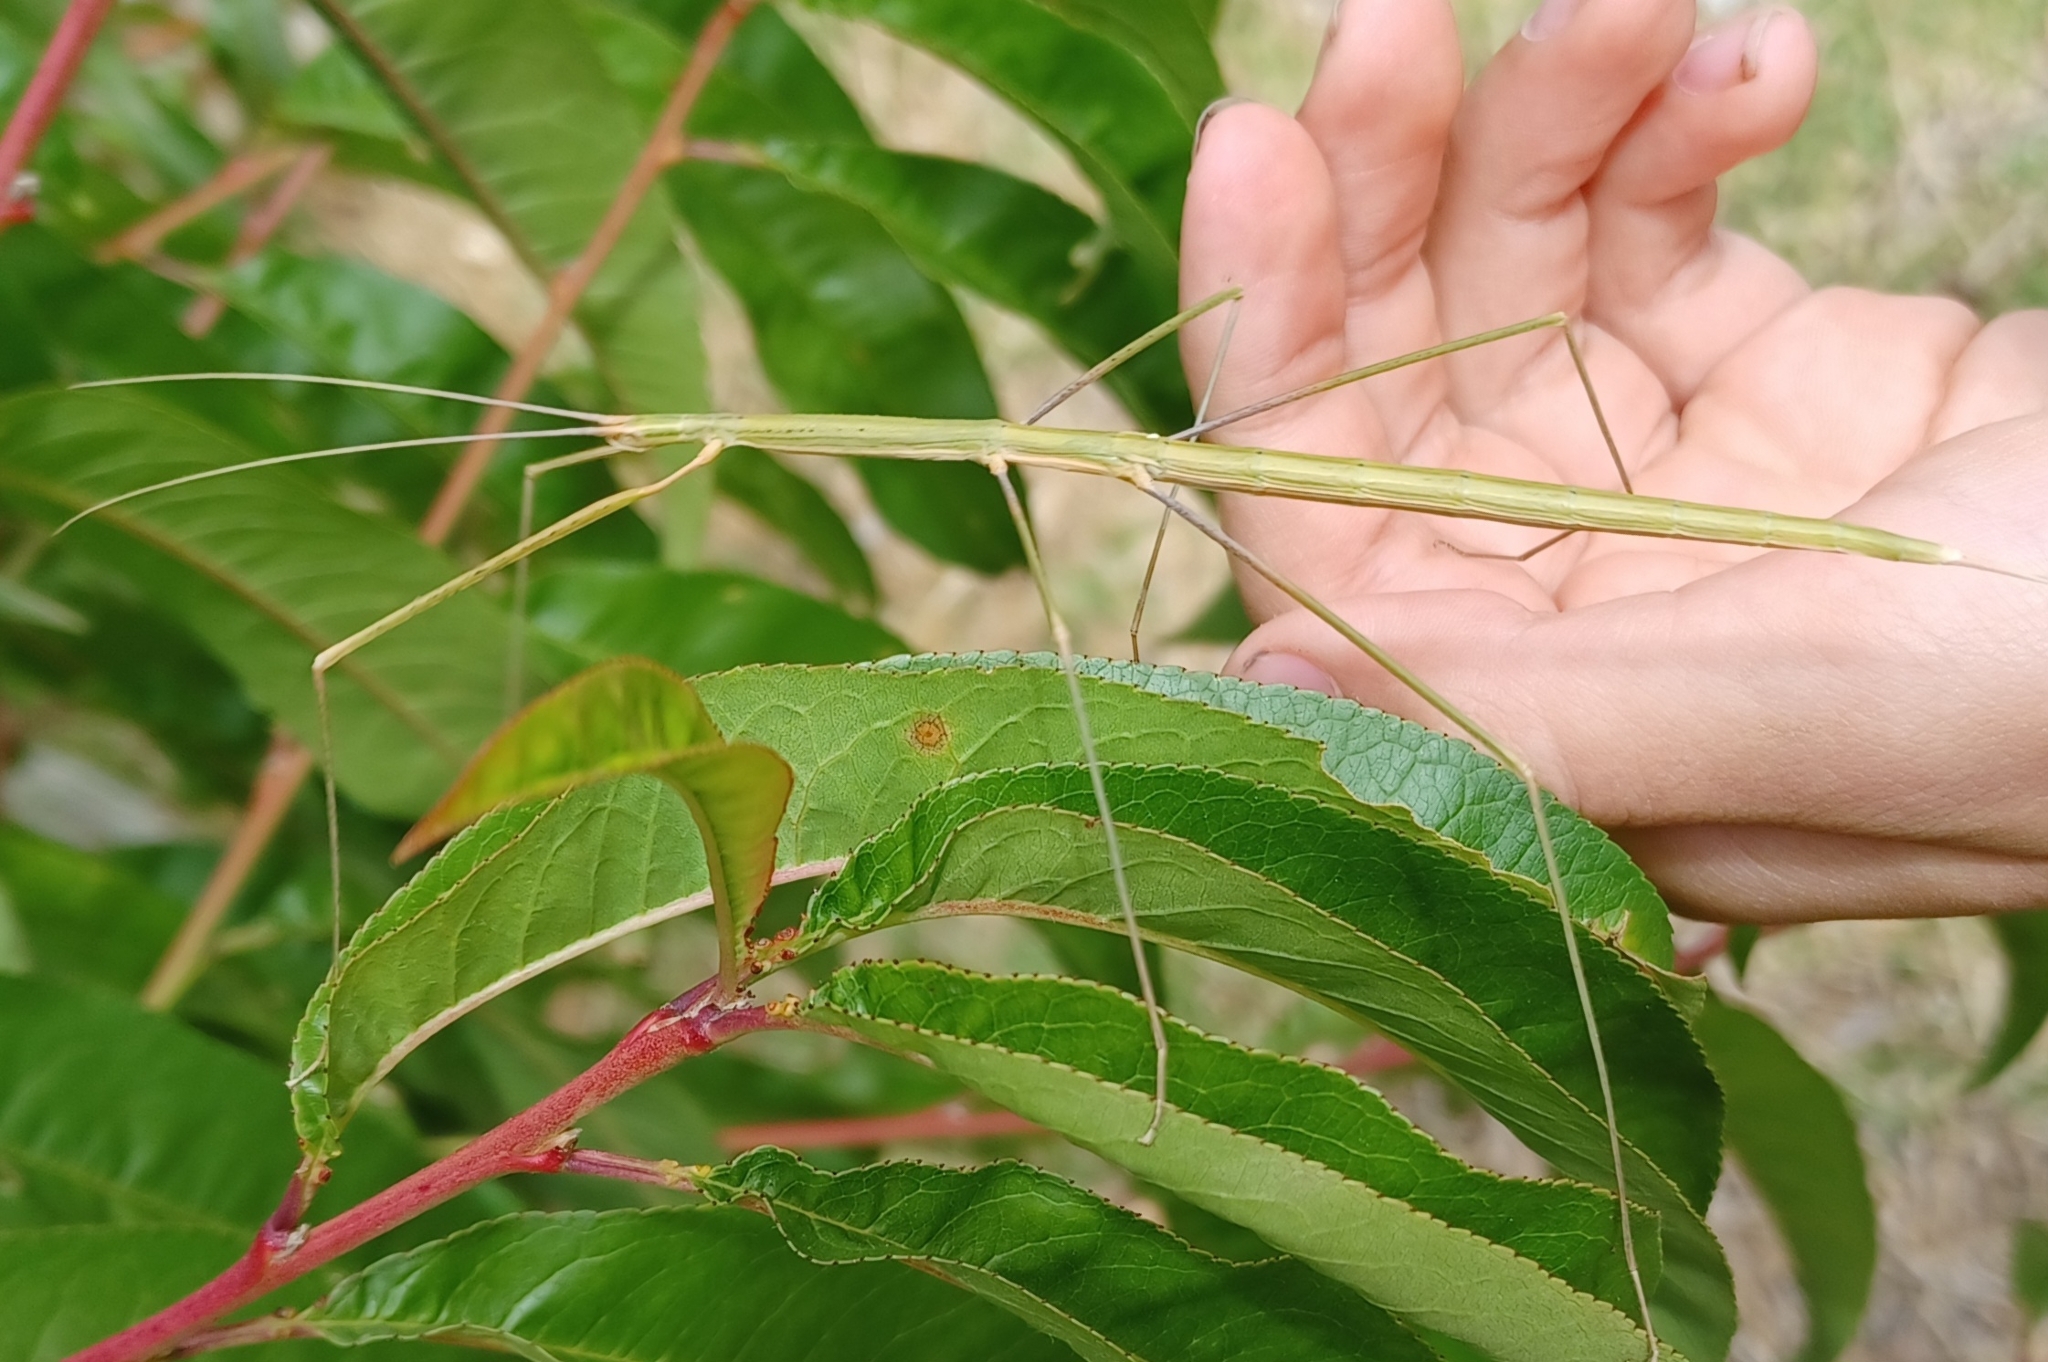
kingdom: Animalia
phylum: Arthropoda
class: Insecta
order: Phasmida
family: Lonchodidae
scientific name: Lonchodidae
